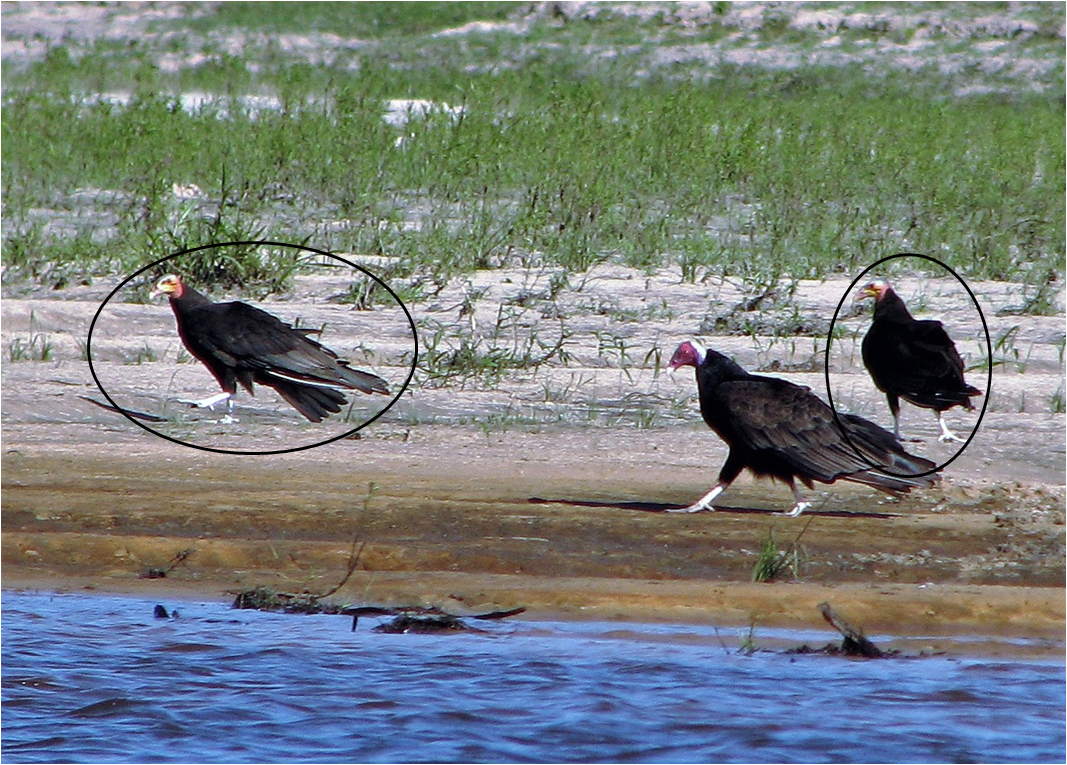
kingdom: Animalia
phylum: Chordata
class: Aves
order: Accipitriformes
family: Cathartidae
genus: Cathartes
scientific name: Cathartes burrovianus
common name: Lesser yellow-headed vulture
